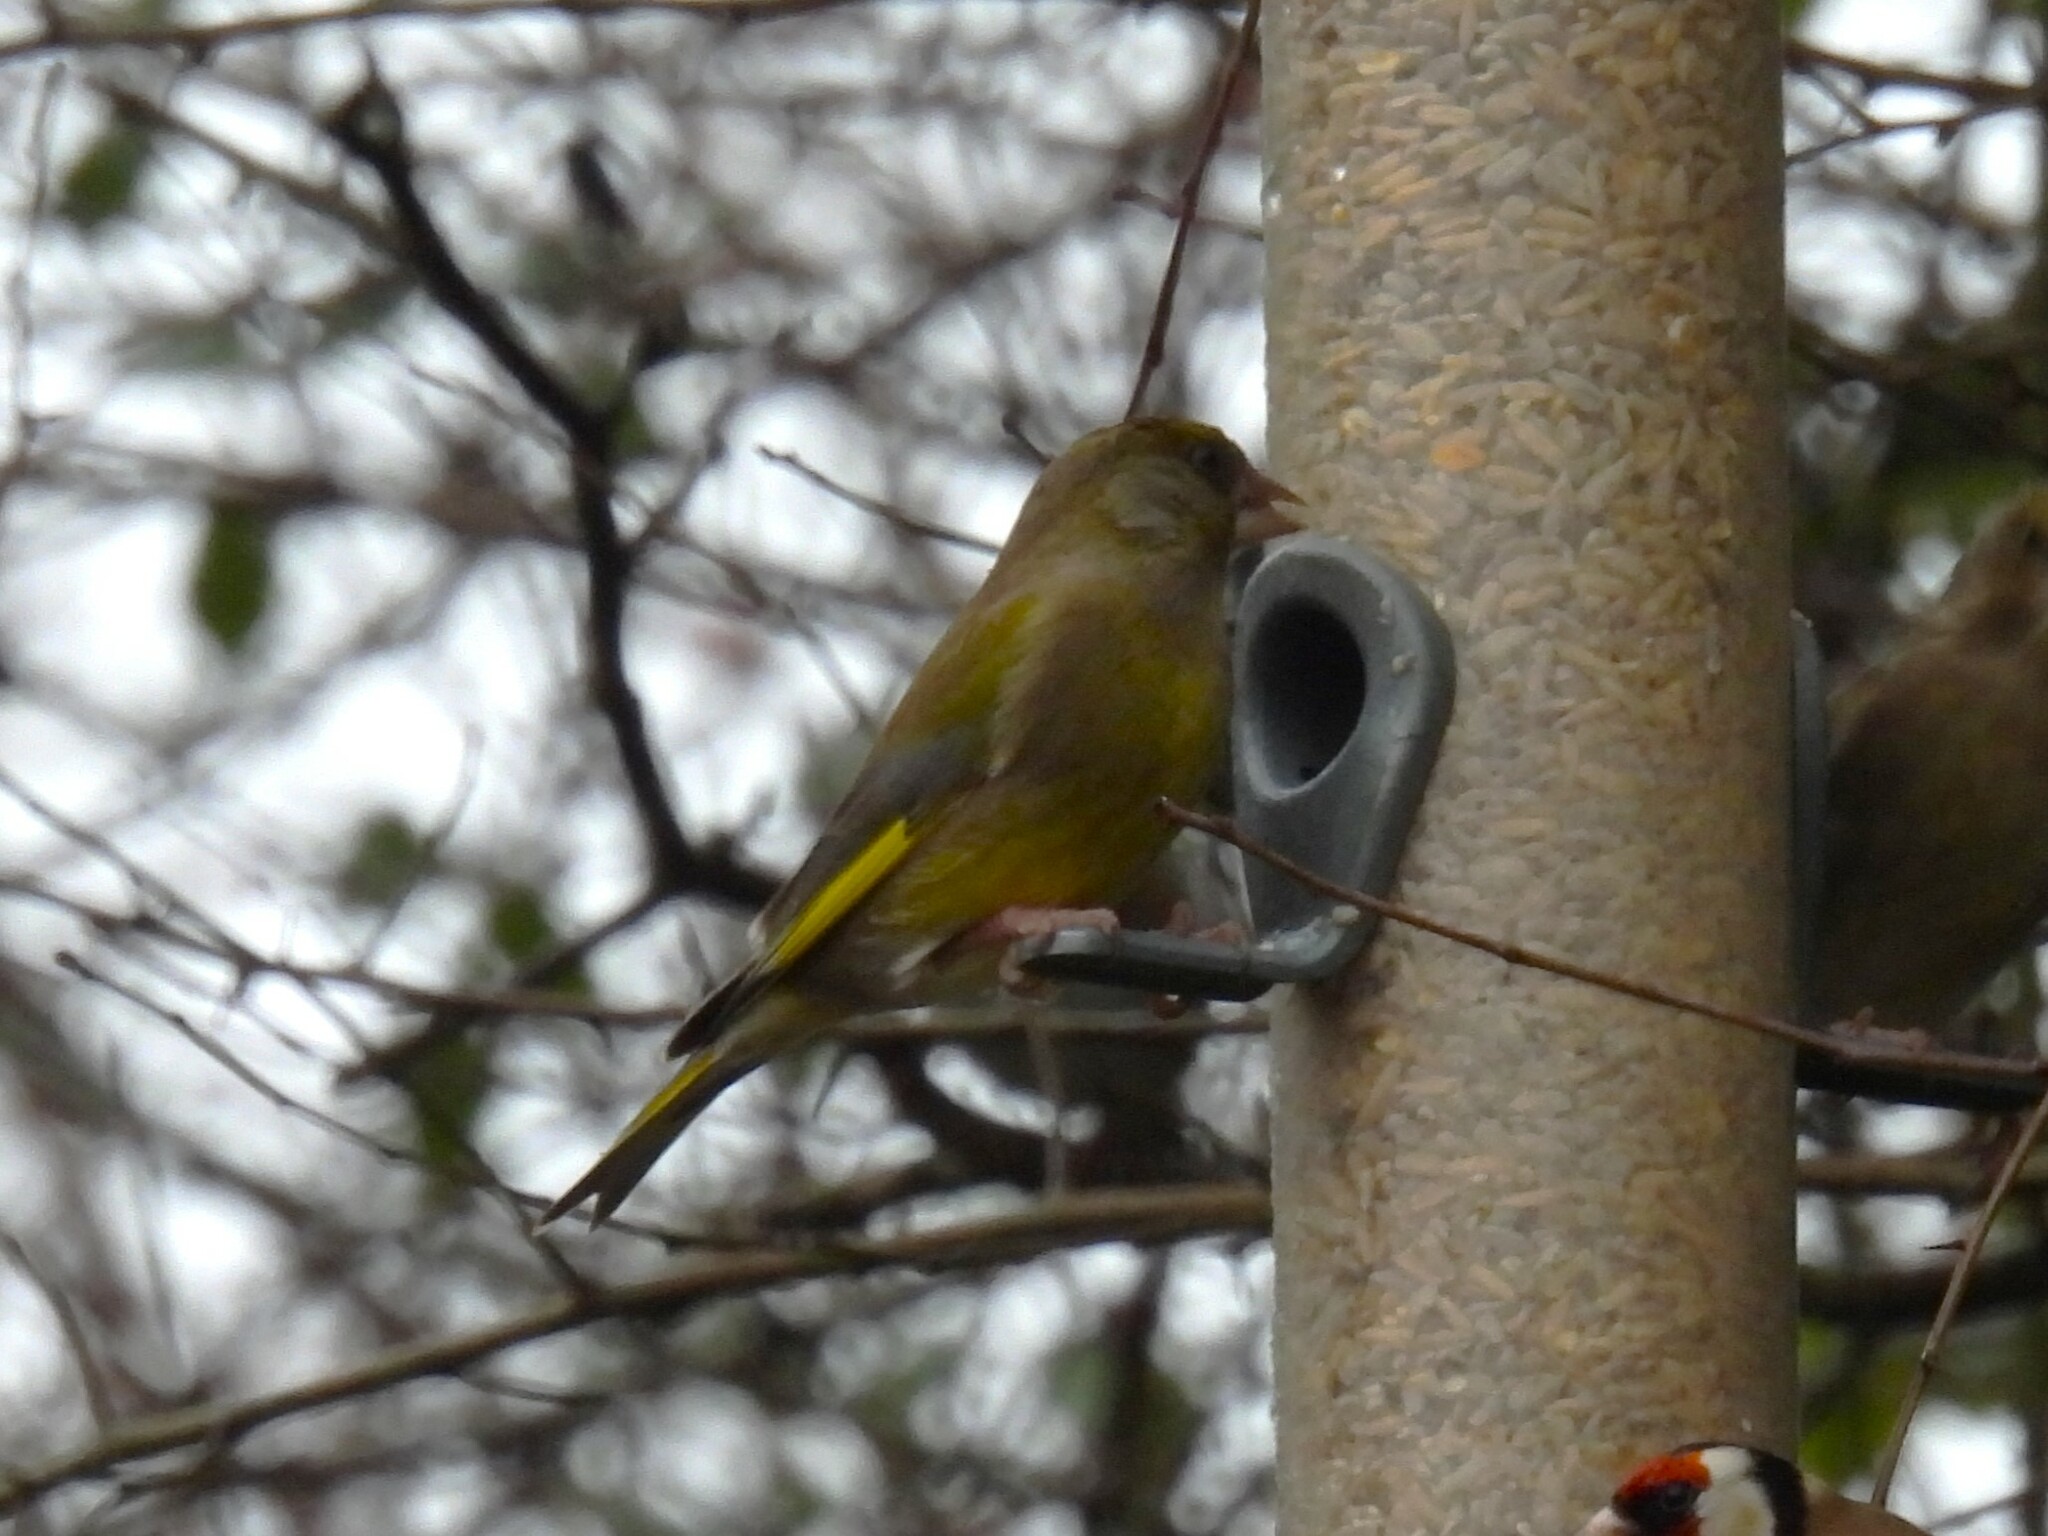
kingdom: Plantae
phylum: Tracheophyta
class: Liliopsida
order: Poales
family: Poaceae
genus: Chloris
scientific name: Chloris chloris
